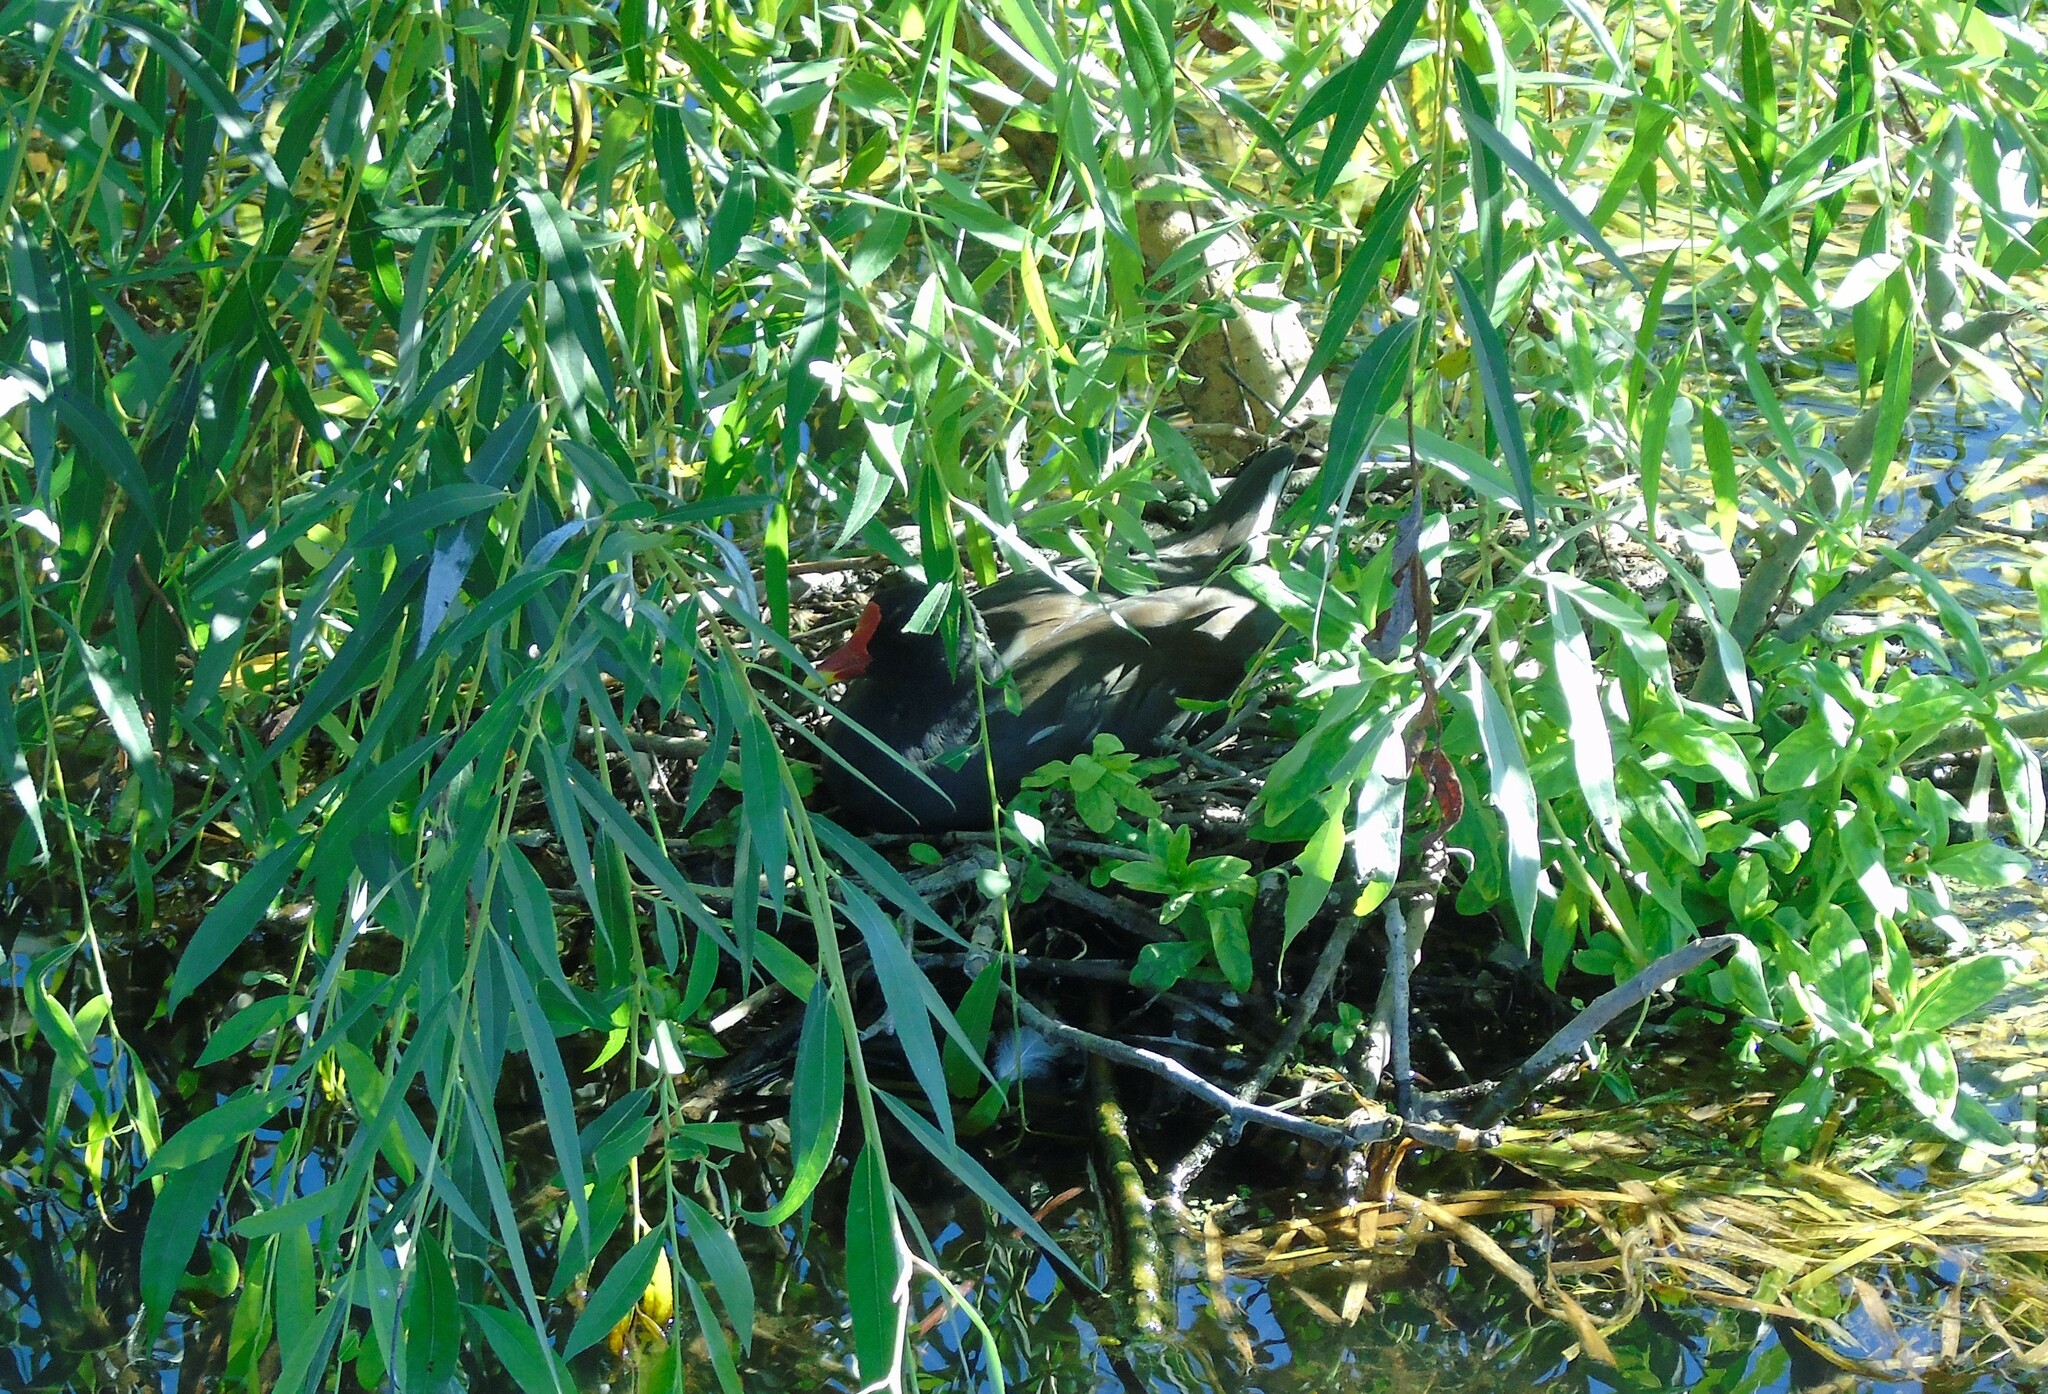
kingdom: Animalia
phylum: Chordata
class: Aves
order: Gruiformes
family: Rallidae
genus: Gallinula
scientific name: Gallinula chloropus
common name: Common moorhen
